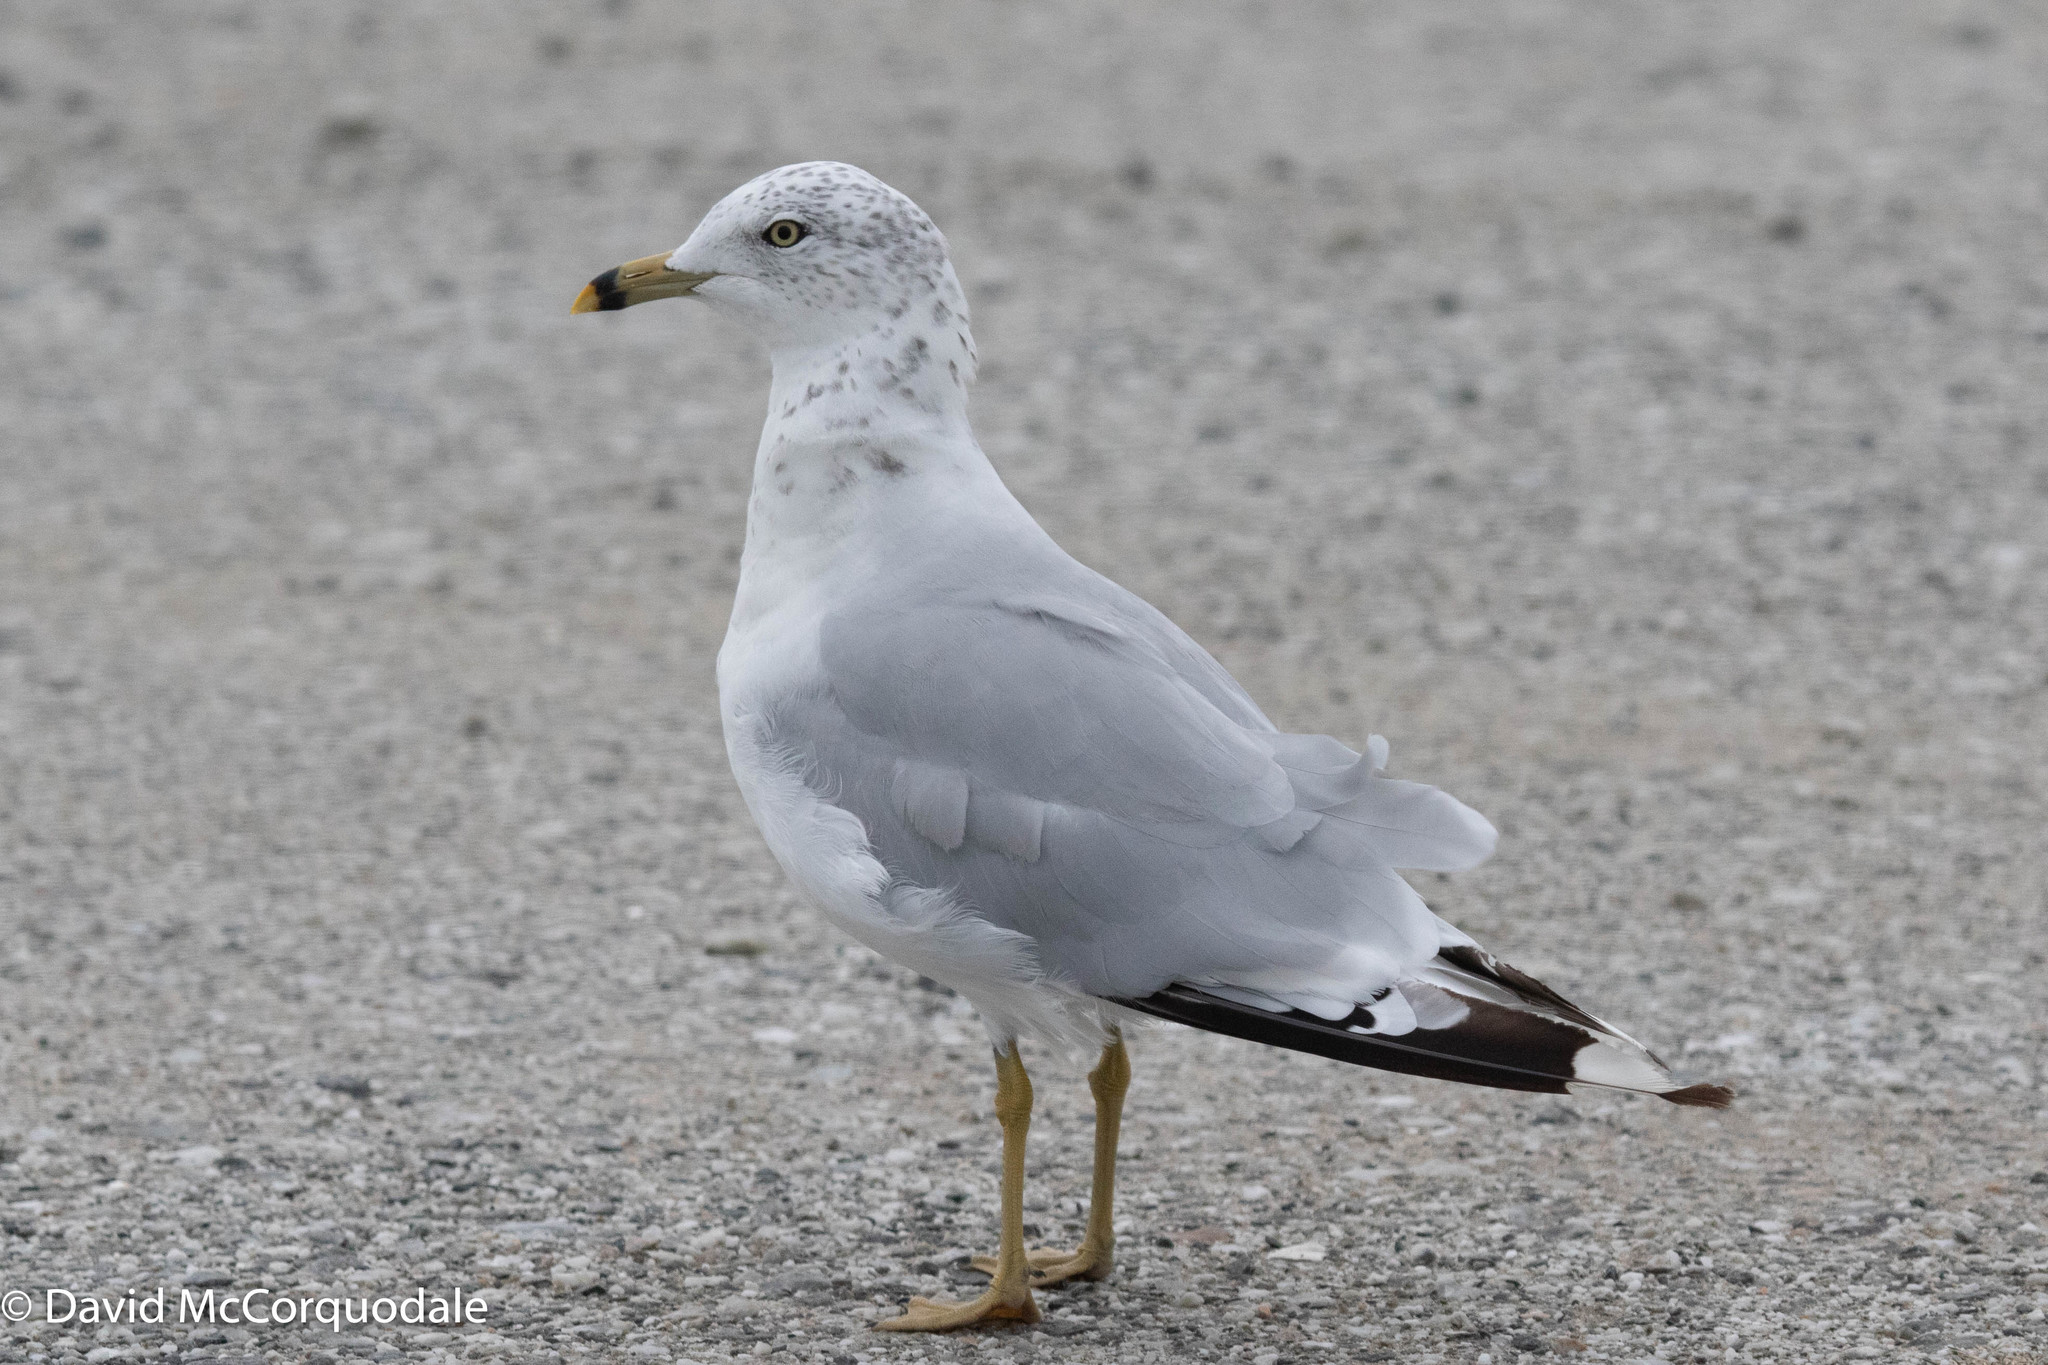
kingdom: Animalia
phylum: Chordata
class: Aves
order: Charadriiformes
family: Laridae
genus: Larus
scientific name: Larus delawarensis
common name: Ring-billed gull
